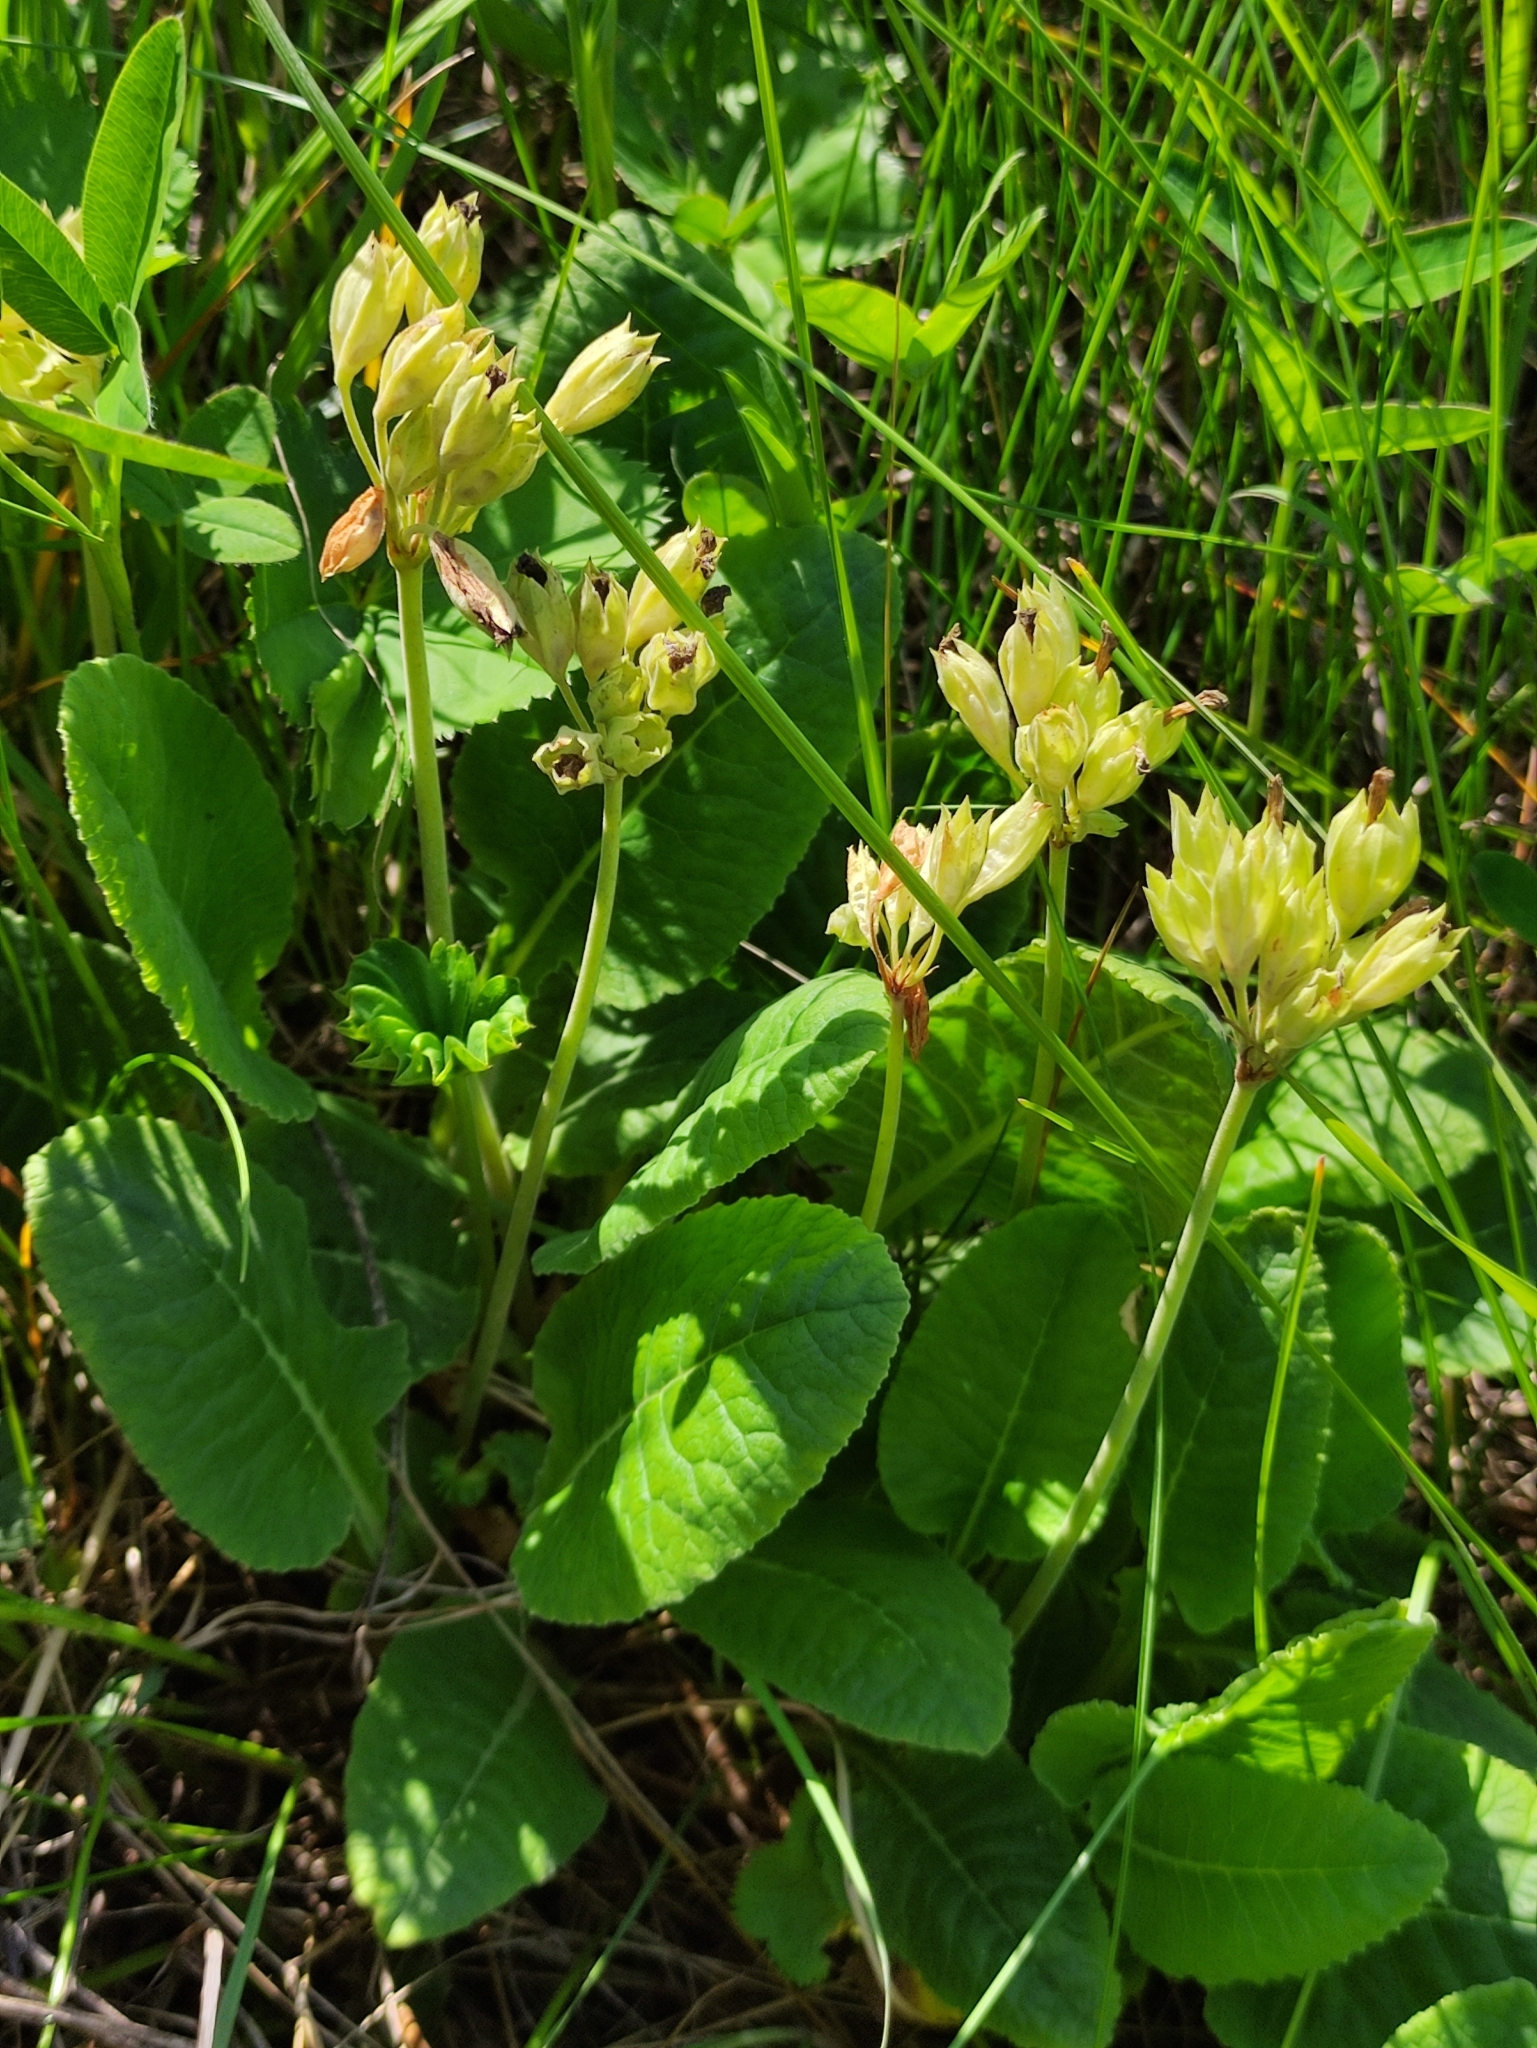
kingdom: Plantae
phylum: Tracheophyta
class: Magnoliopsida
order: Ericales
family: Primulaceae
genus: Primula
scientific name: Primula veris
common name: Cowslip
